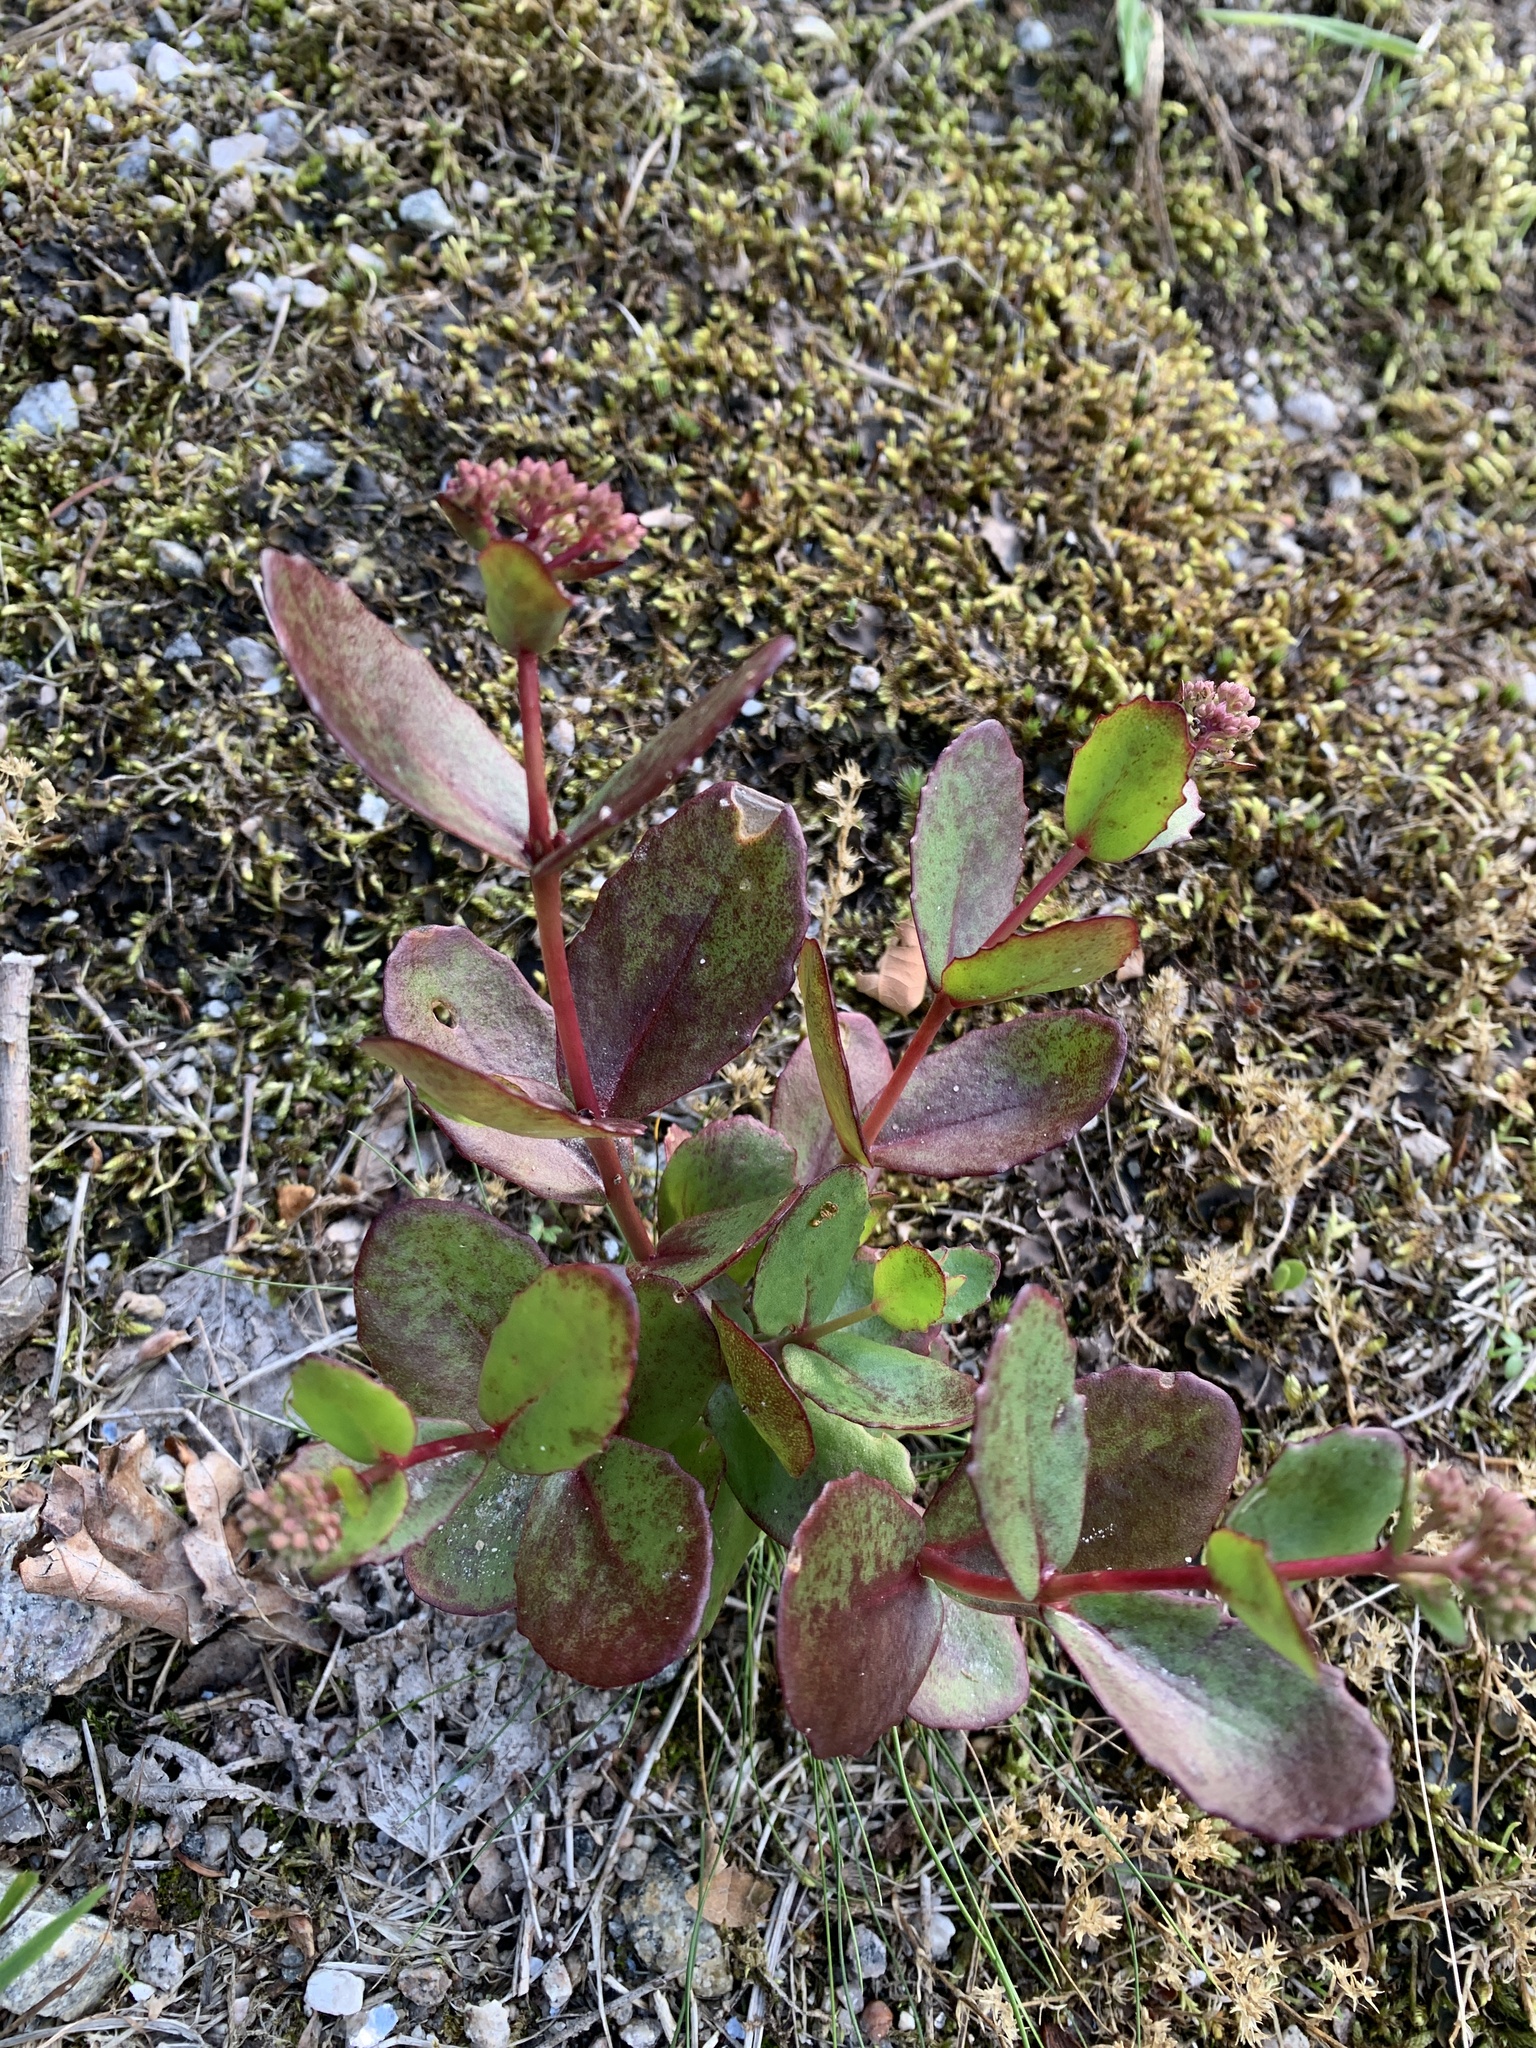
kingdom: Plantae
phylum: Tracheophyta
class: Magnoliopsida
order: Saxifragales
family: Crassulaceae
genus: Hylotelephium
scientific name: Hylotelephium maximum
